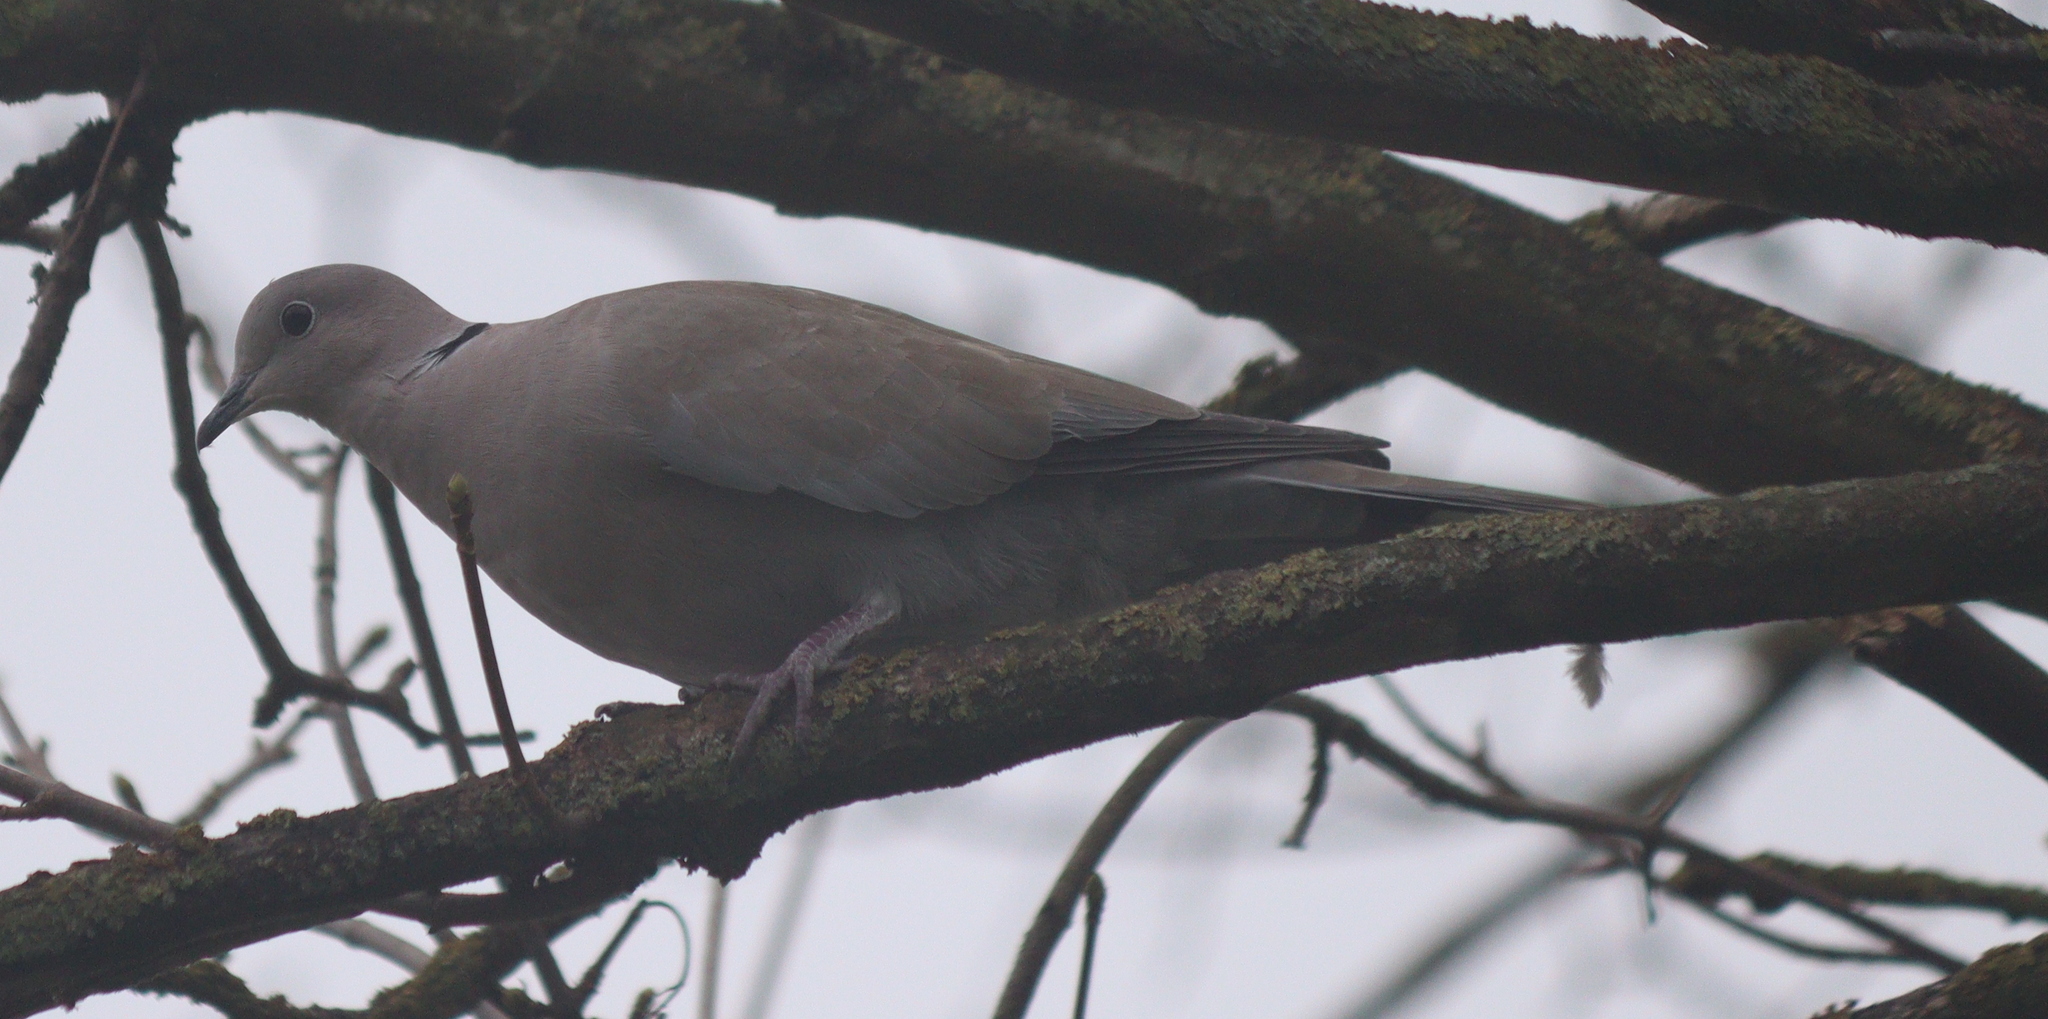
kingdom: Animalia
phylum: Chordata
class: Aves
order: Columbiformes
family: Columbidae
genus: Streptopelia
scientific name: Streptopelia decaocto
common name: Eurasian collared dove
